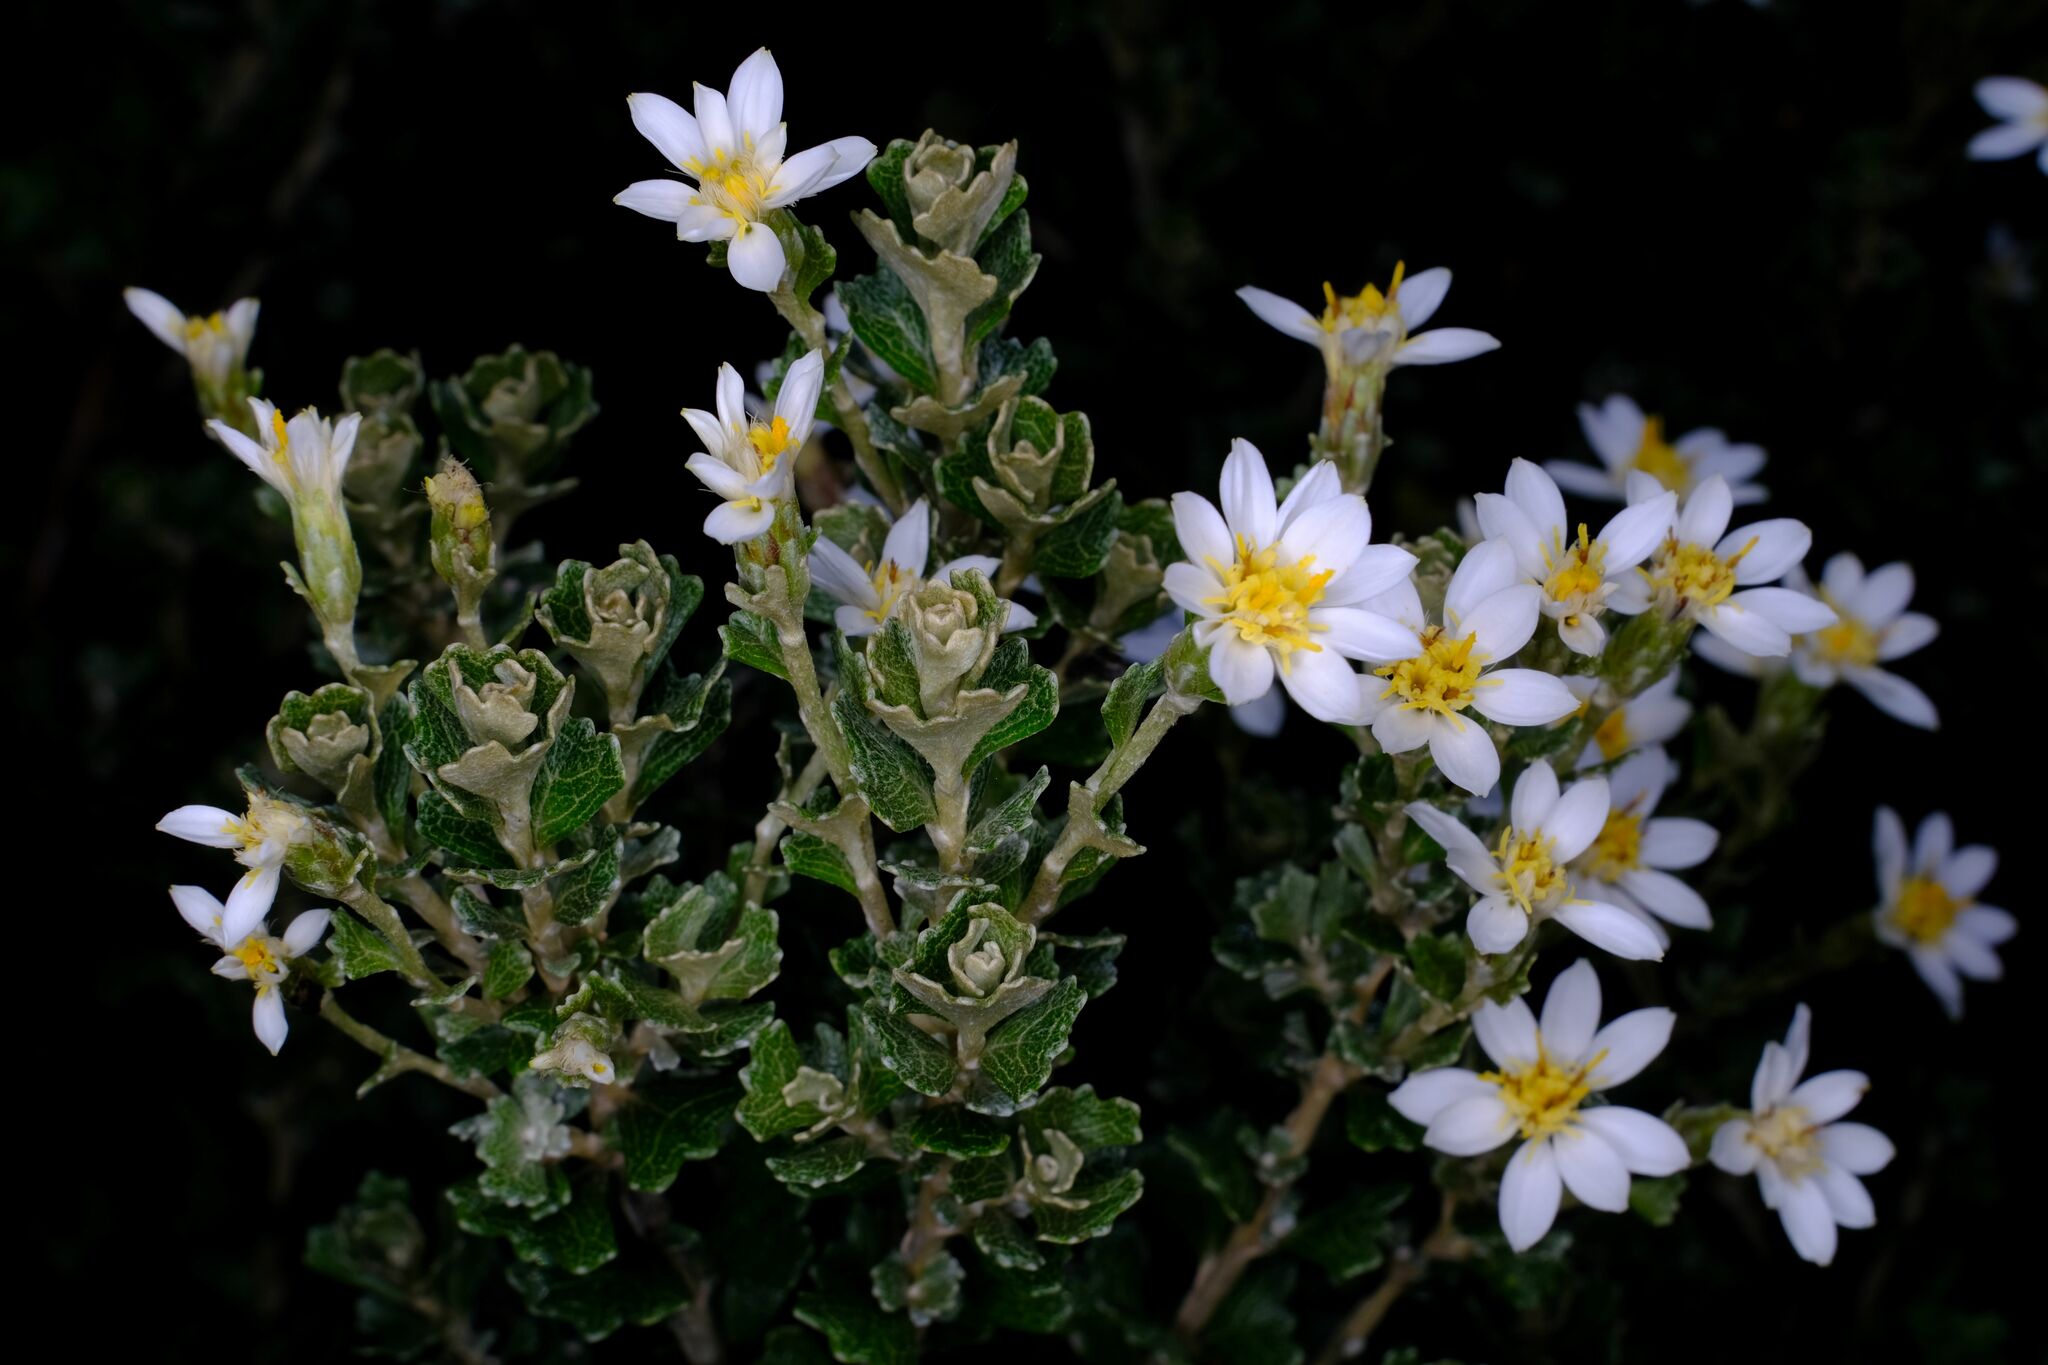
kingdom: Plantae
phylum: Tracheophyta
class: Magnoliopsida
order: Asterales
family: Asteraceae
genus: Olearia
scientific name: Olearia obcordata
